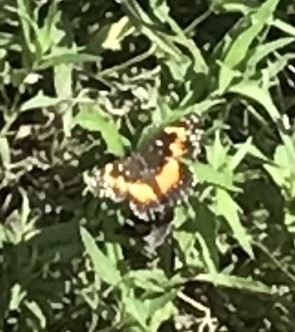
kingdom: Animalia
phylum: Arthropoda
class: Insecta
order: Lepidoptera
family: Nymphalidae
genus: Chlosyne
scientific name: Chlosyne lacinia
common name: Bordered patch
